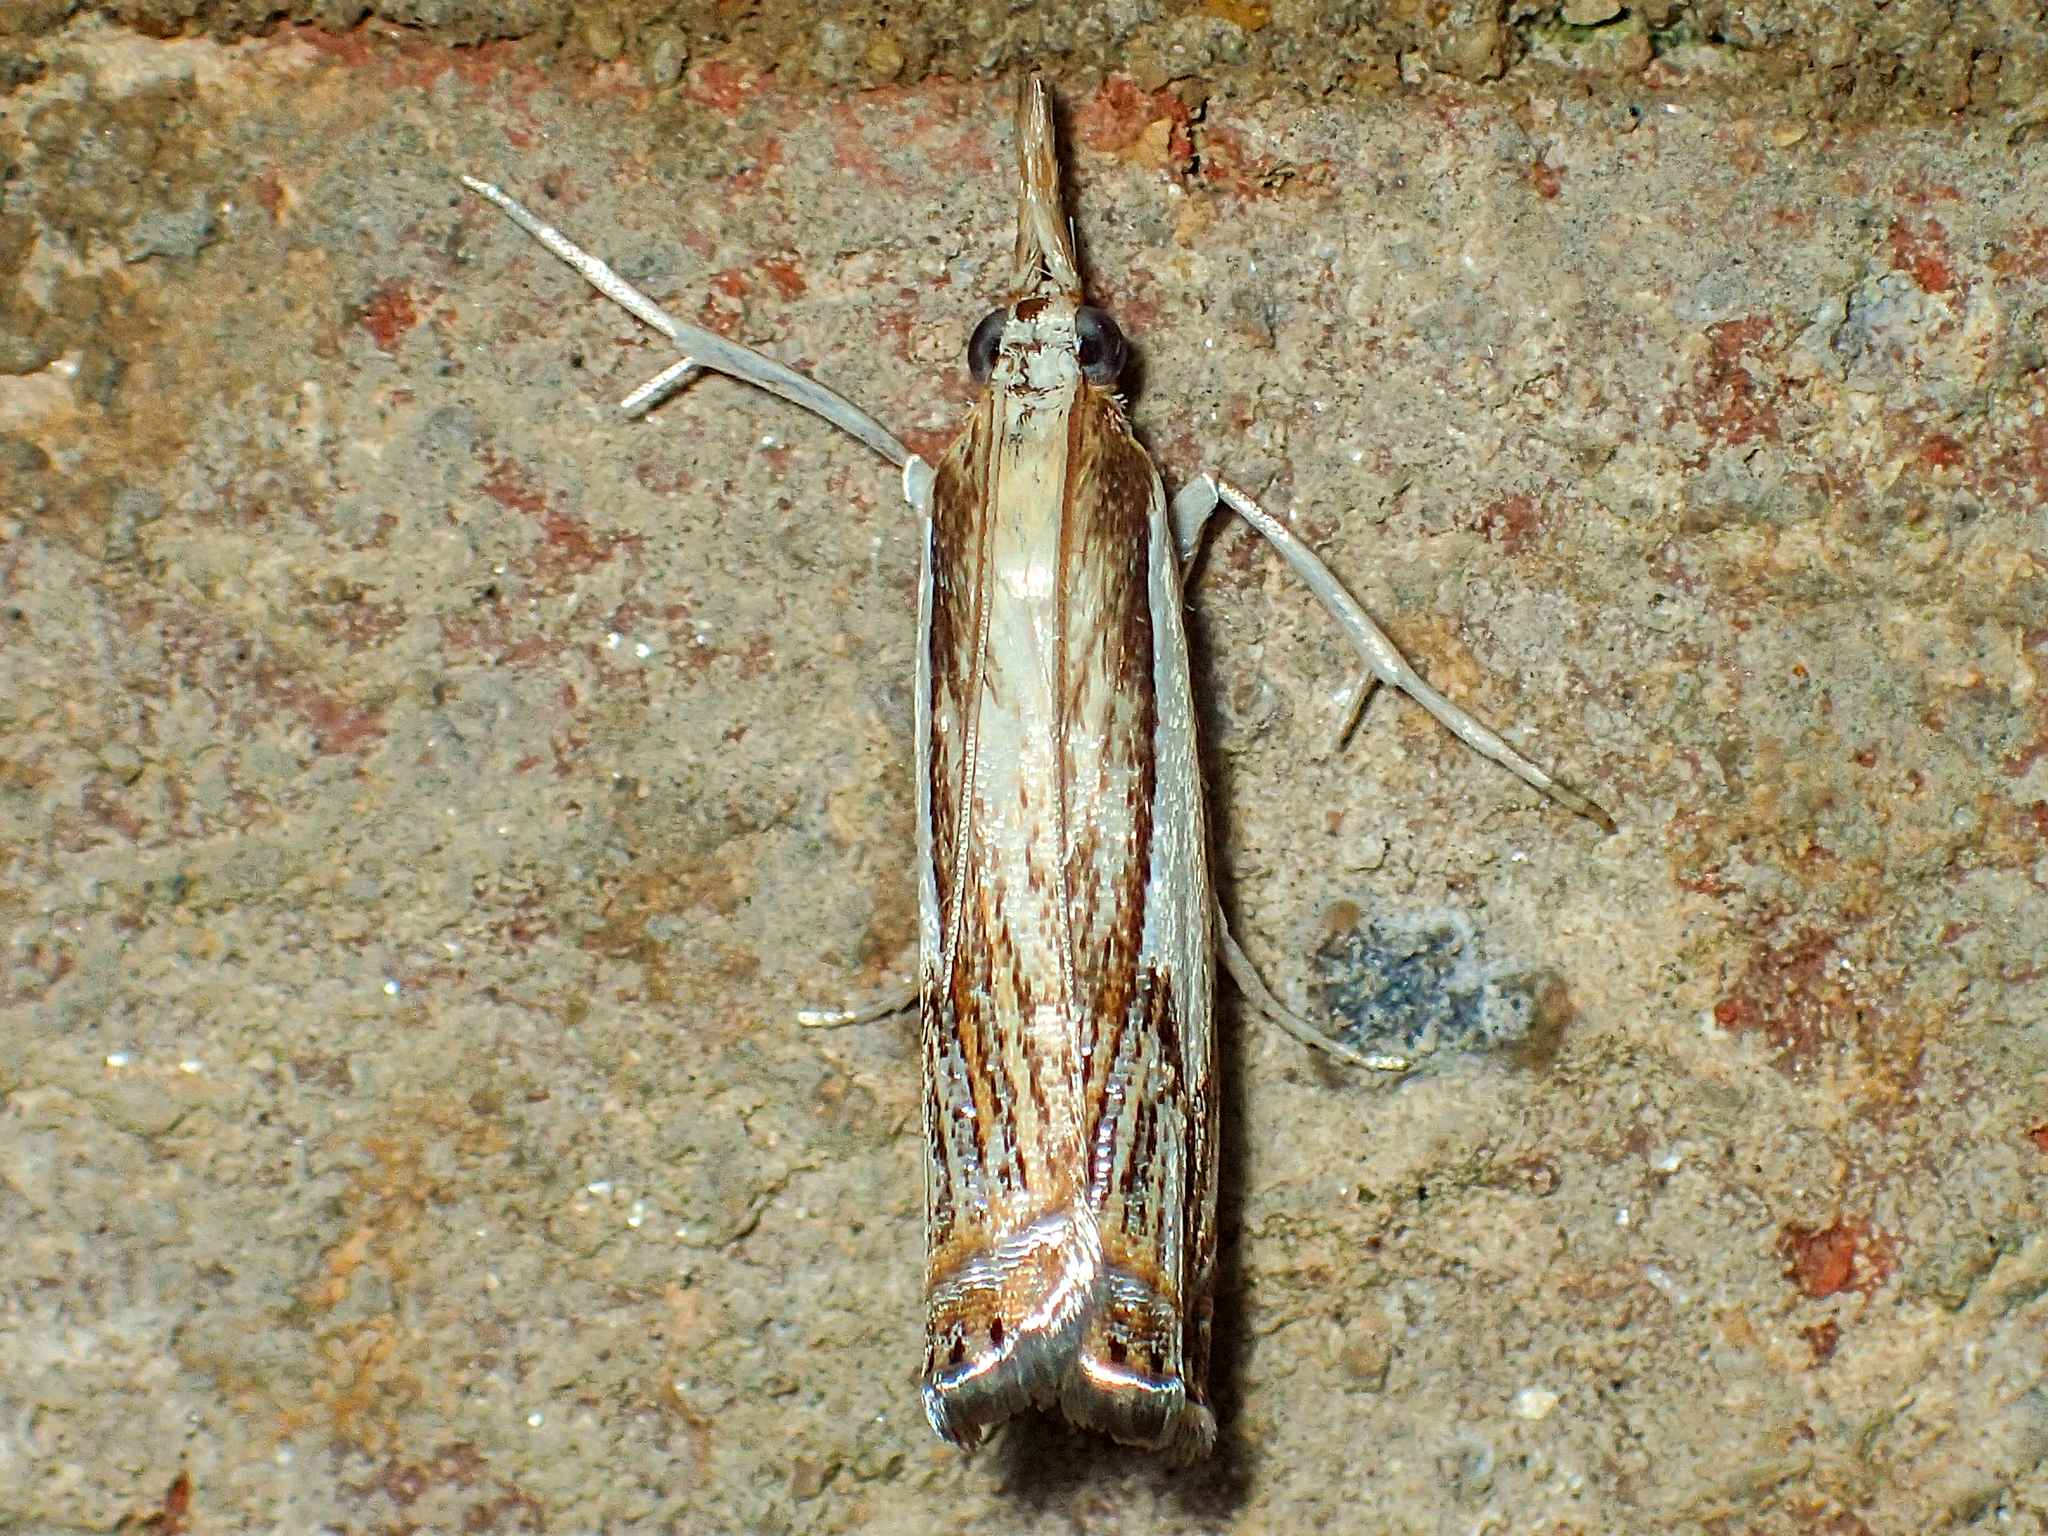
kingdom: Animalia
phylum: Arthropoda
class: Insecta
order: Lepidoptera
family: Crambidae
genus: Crambus
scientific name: Crambus agitatellus
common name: Double-banded grass-veneer
